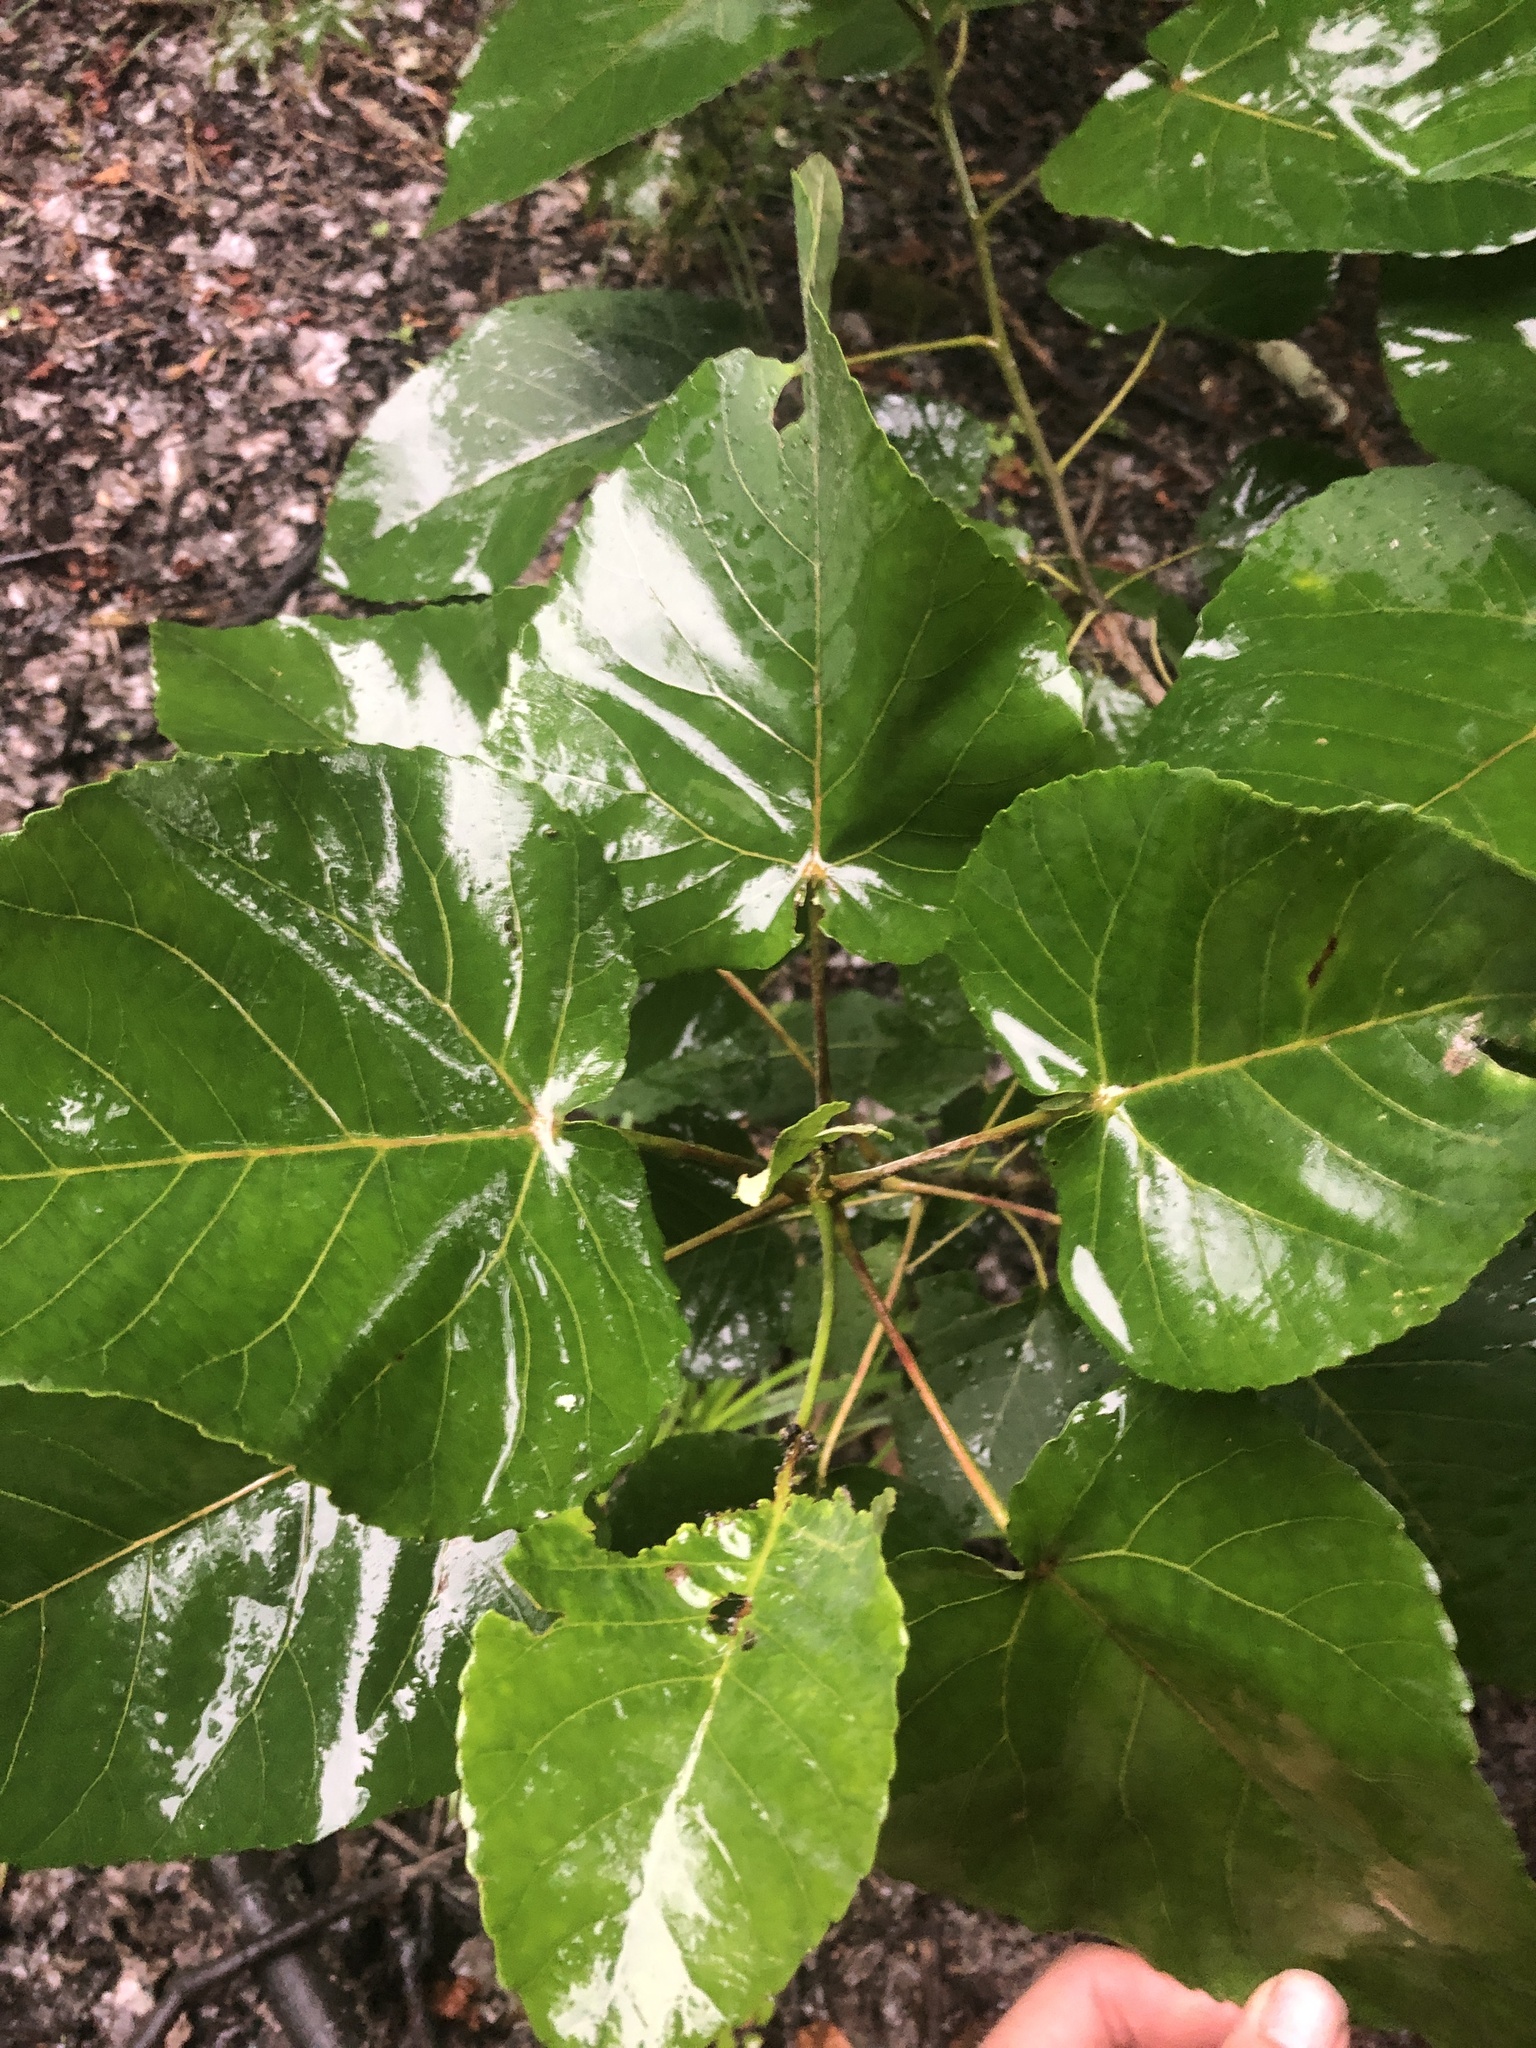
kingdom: Plantae
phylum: Tracheophyta
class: Magnoliopsida
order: Malpighiales
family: Salicaceae
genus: Populus
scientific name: Populus heterophylla
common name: Downy poplar
